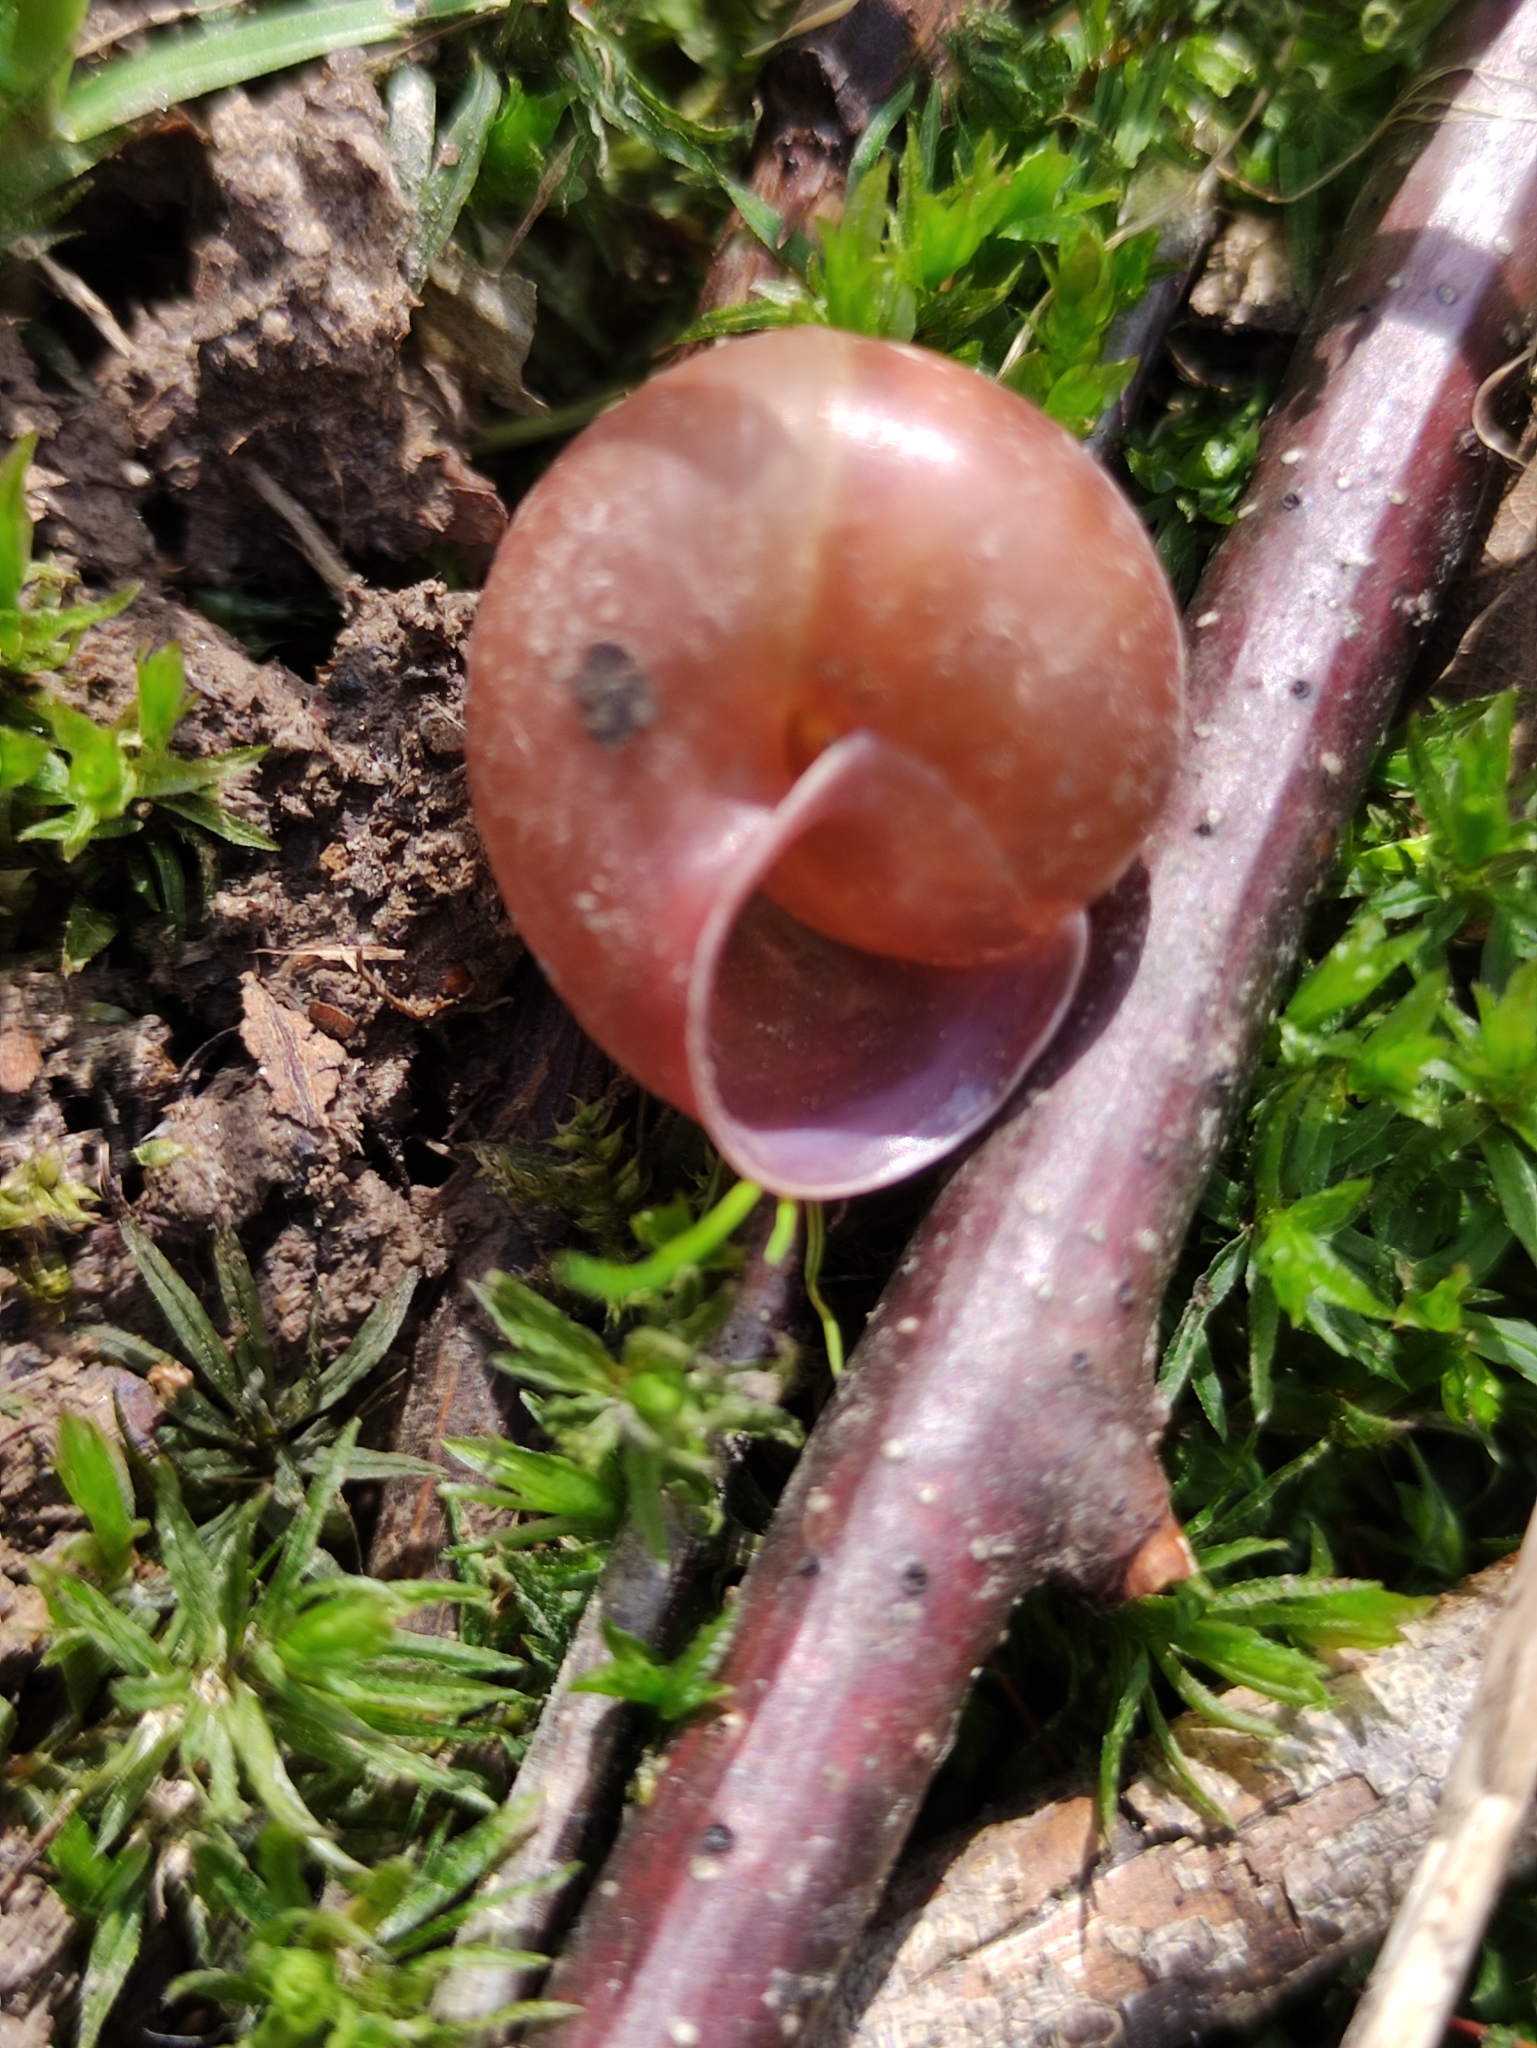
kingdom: Animalia
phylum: Mollusca
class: Gastropoda
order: Stylommatophora
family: Camaenidae
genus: Fruticicola
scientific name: Fruticicola fruticum
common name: Bush snail
